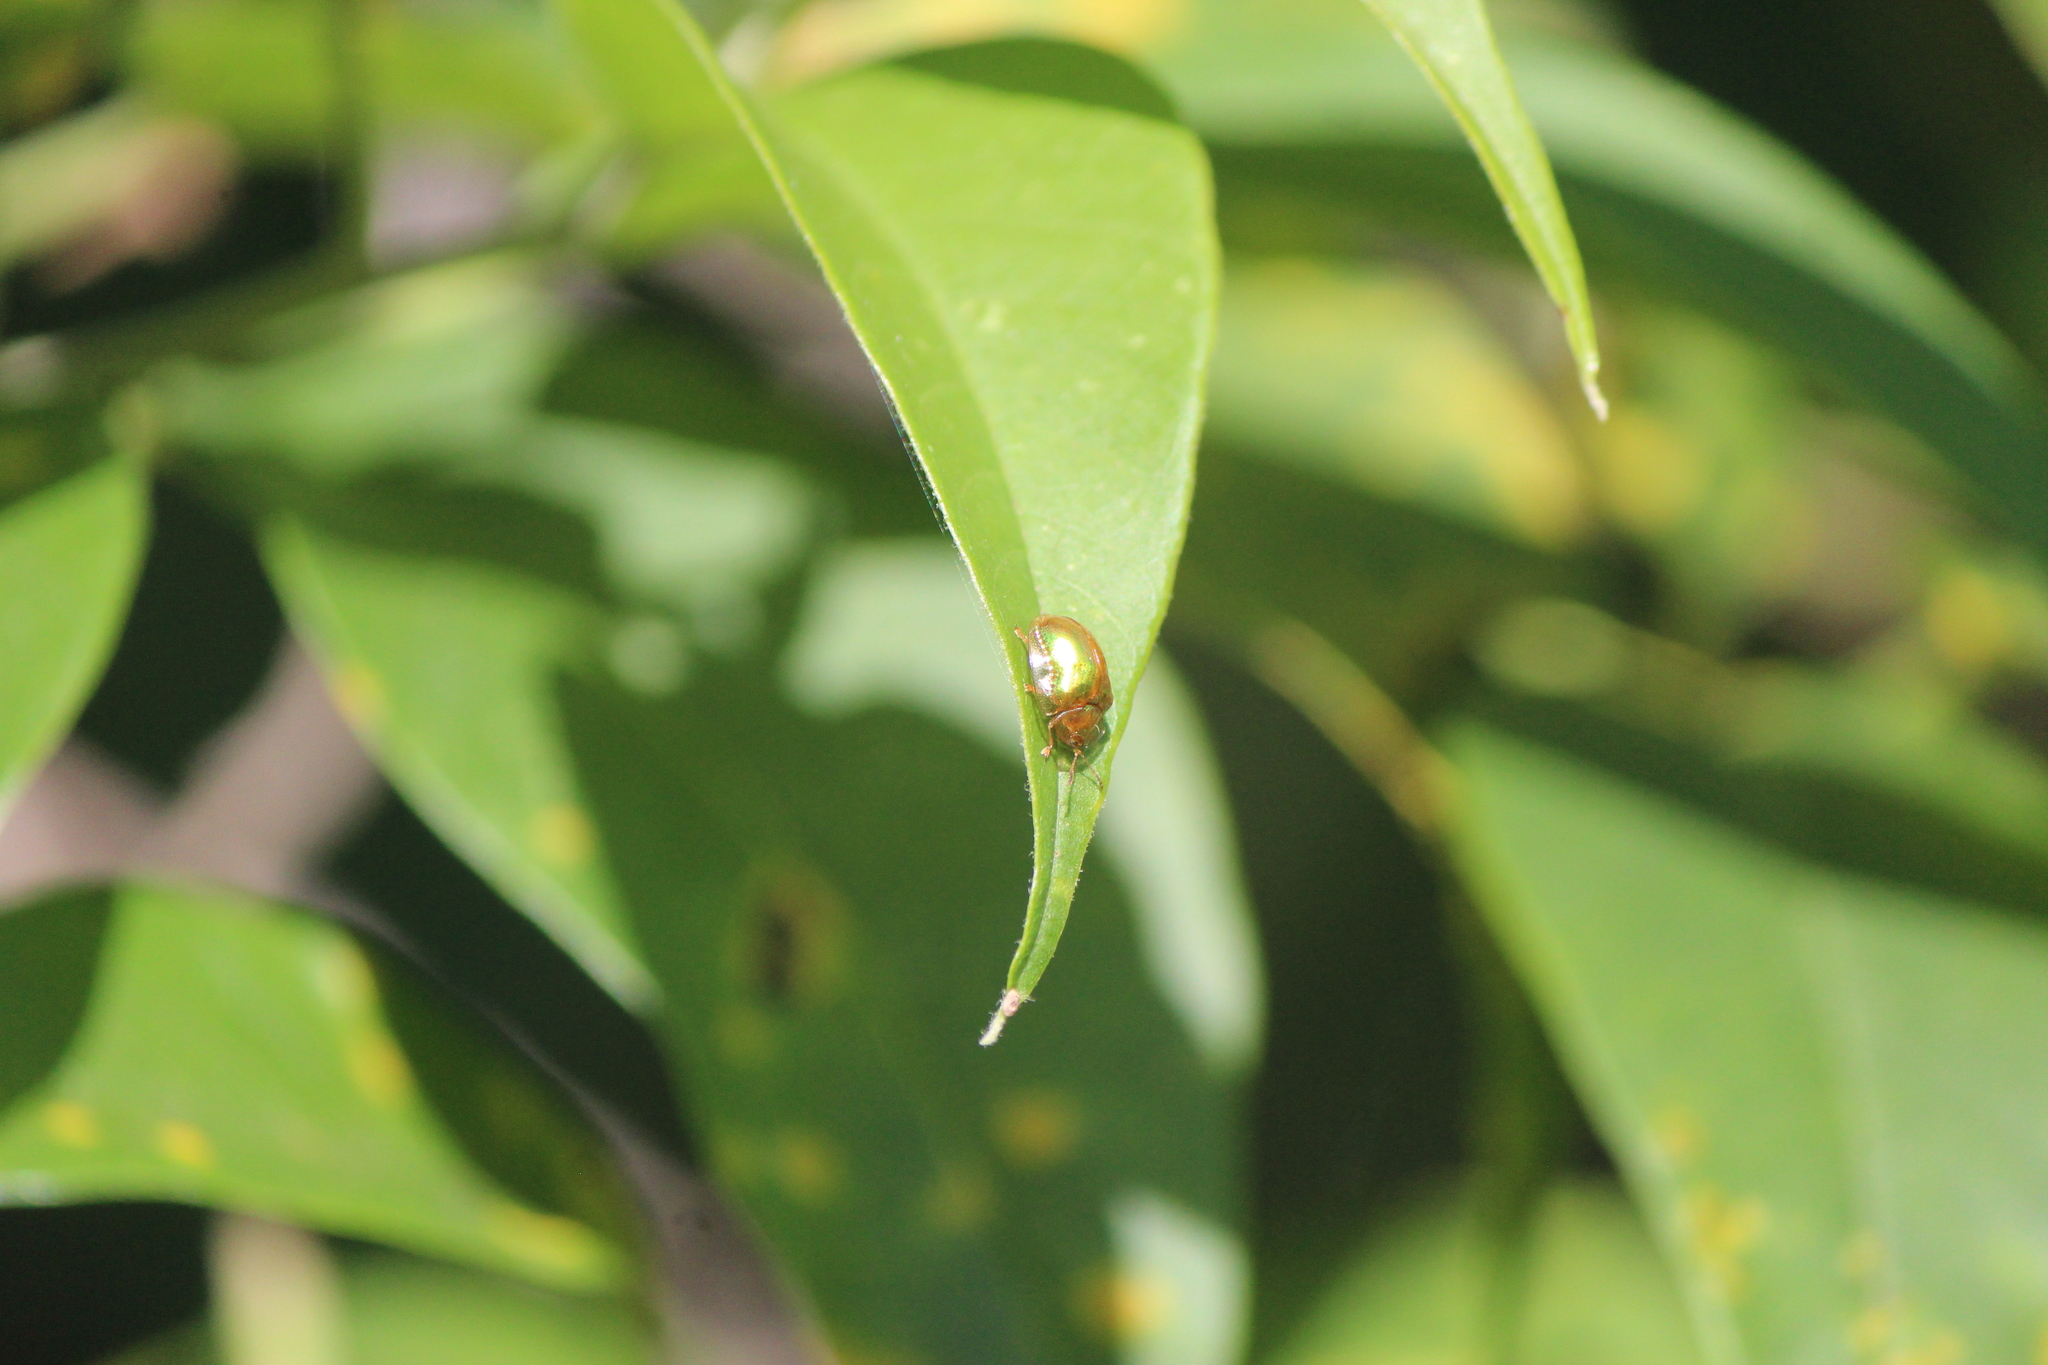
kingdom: Animalia
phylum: Arthropoda
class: Insecta
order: Coleoptera
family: Chrysomelidae
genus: Charidotella
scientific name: Charidotella succinea
